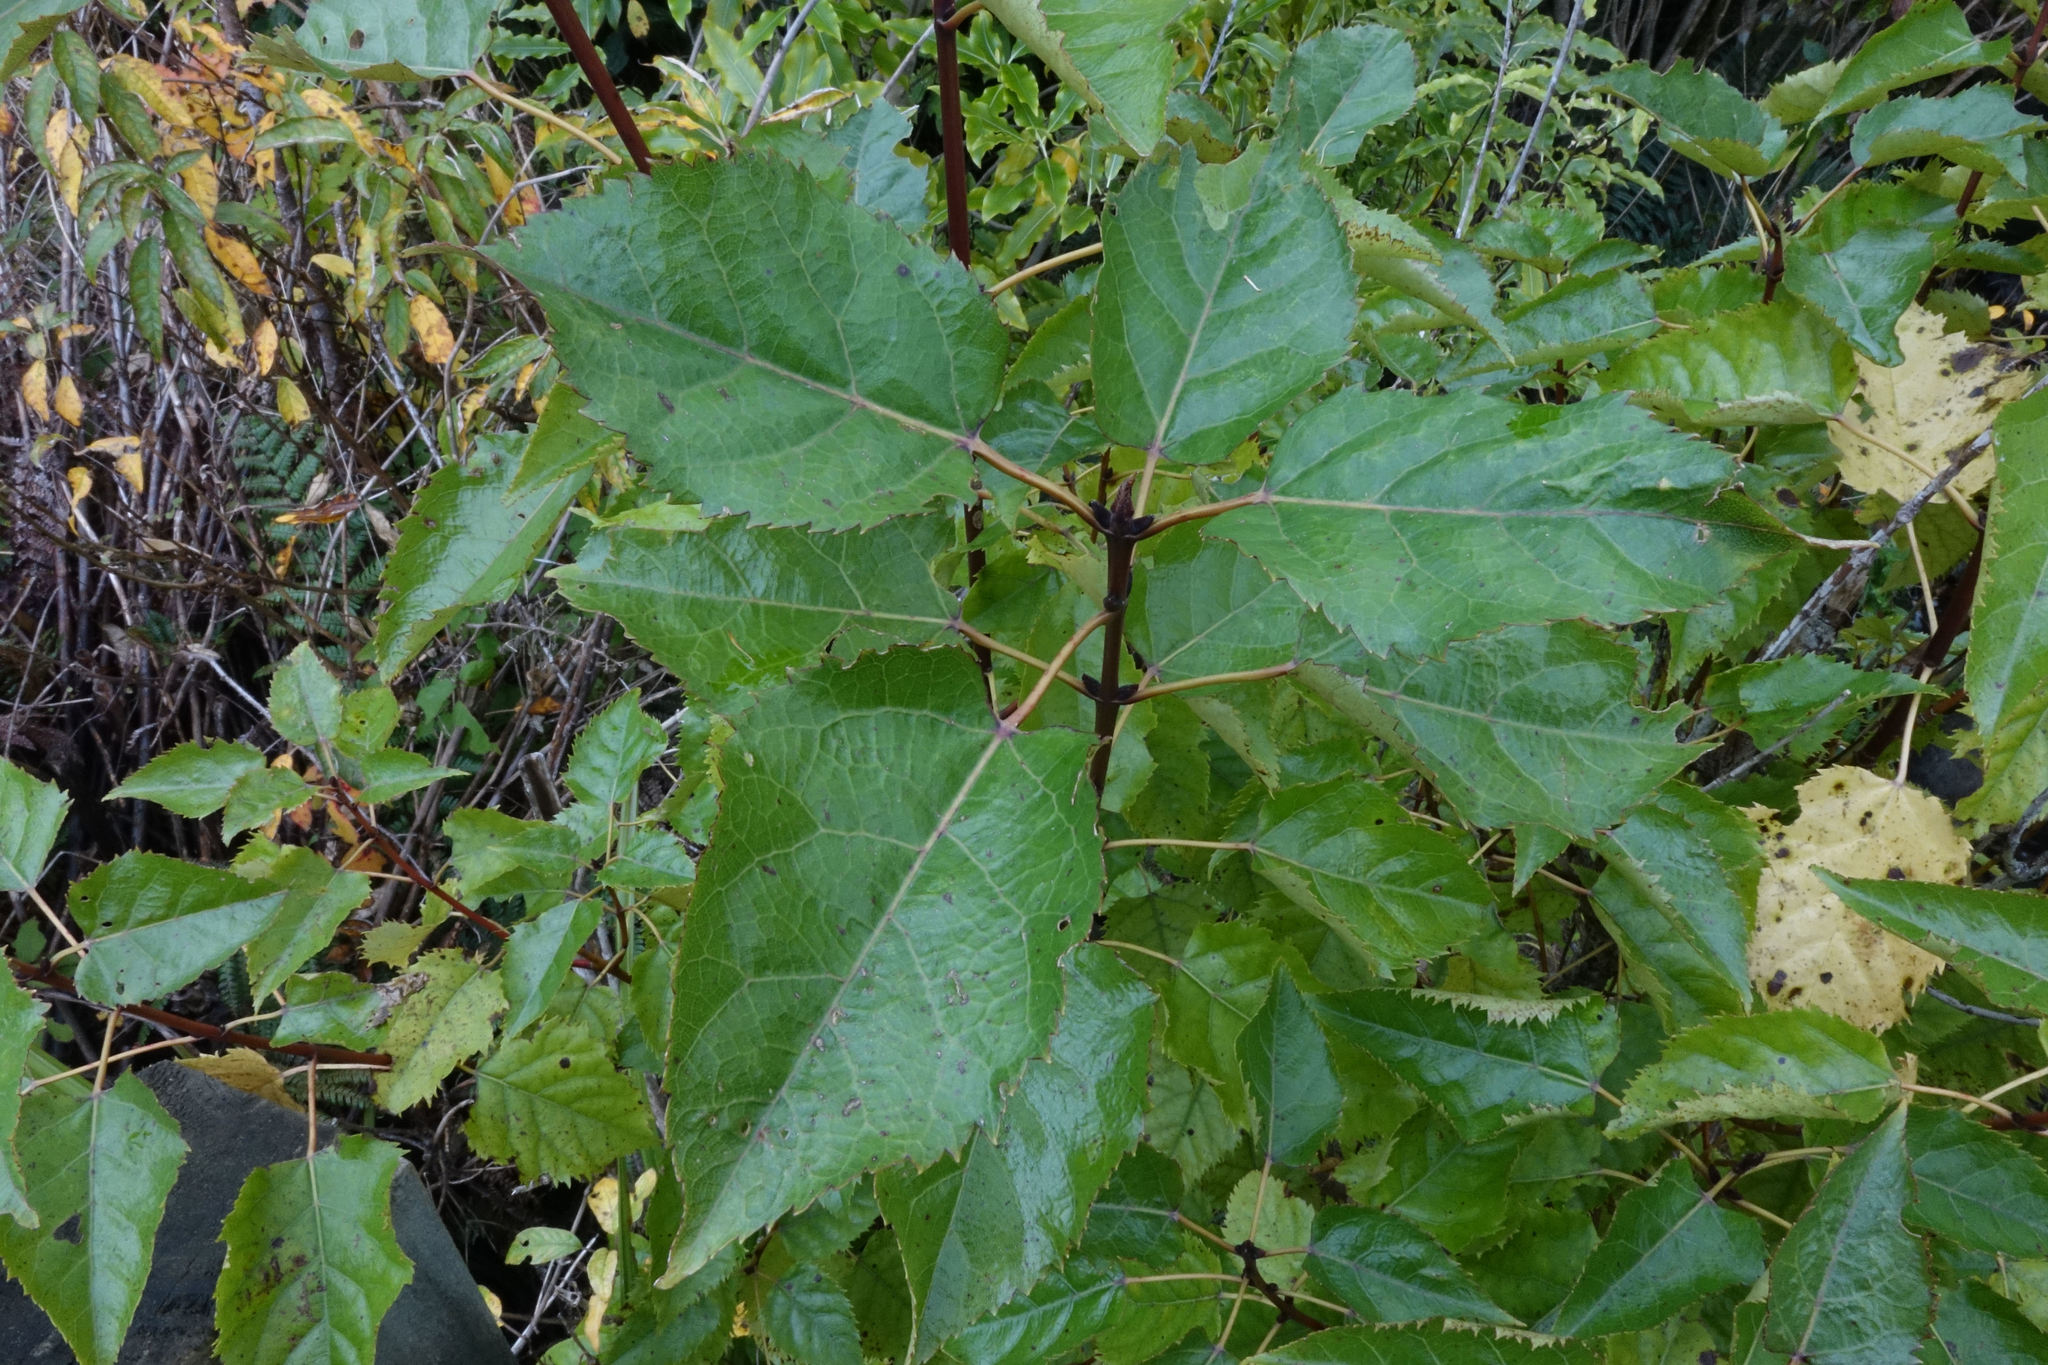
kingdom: Plantae
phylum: Tracheophyta
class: Magnoliopsida
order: Oxalidales
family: Elaeocarpaceae
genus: Aristotelia
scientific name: Aristotelia serrata
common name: New zealand wineberry
